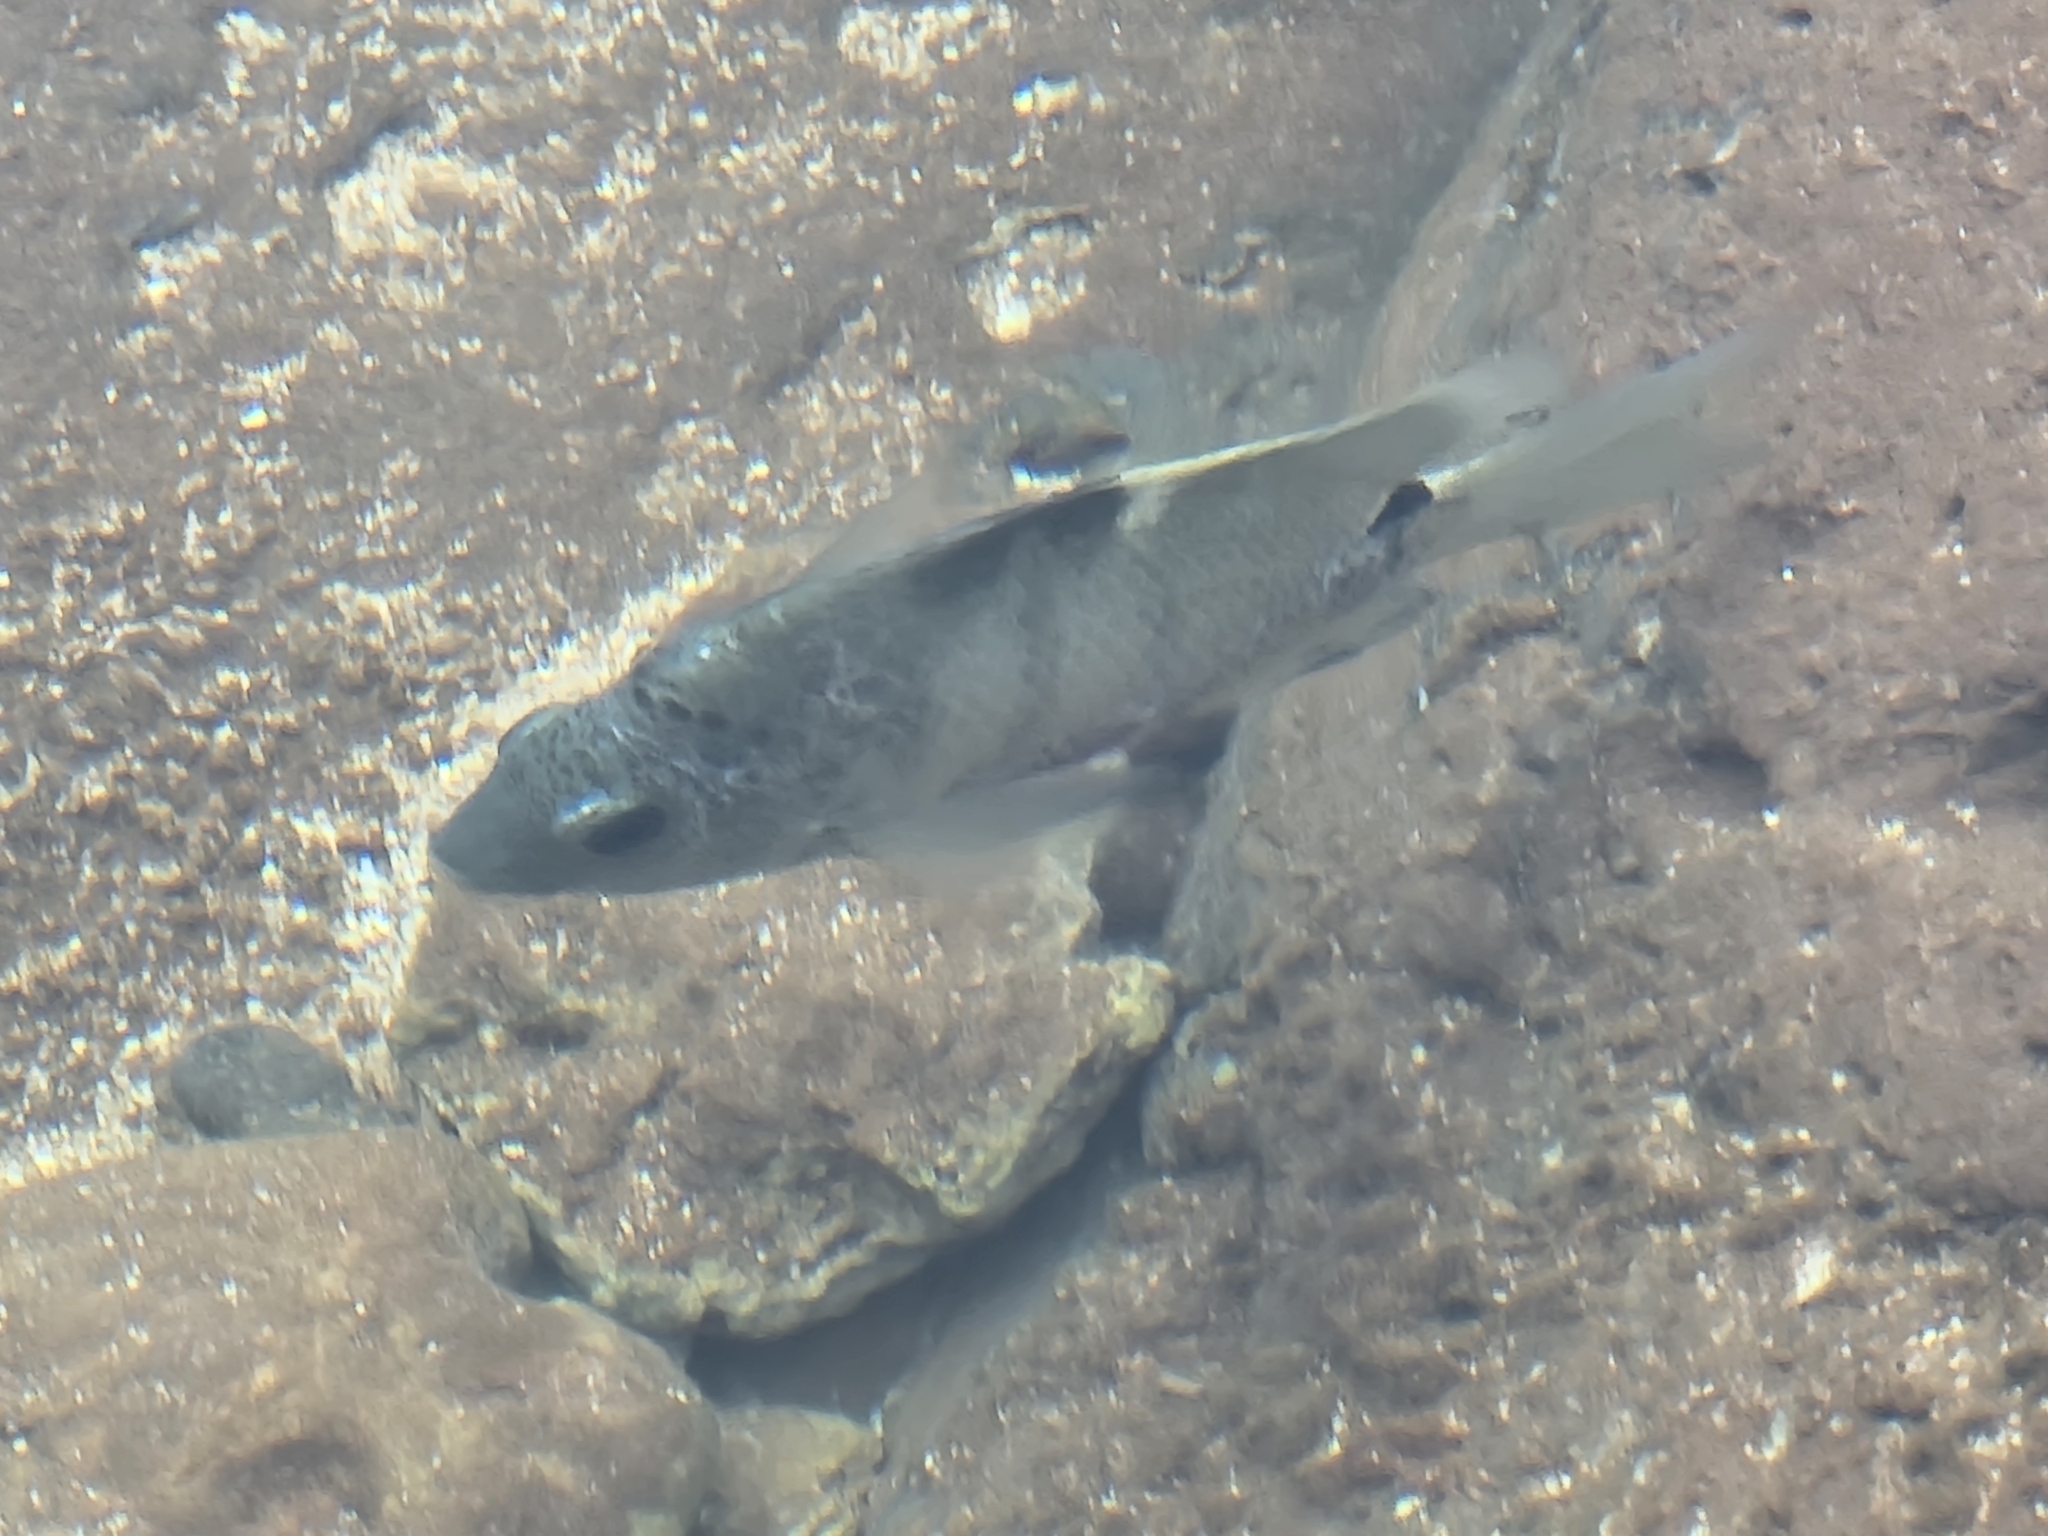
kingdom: Animalia
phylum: Chordata
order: Perciformes
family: Pomacentridae
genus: Abudefduf
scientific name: Abudefduf sordidus
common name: Blackspot sergeant
